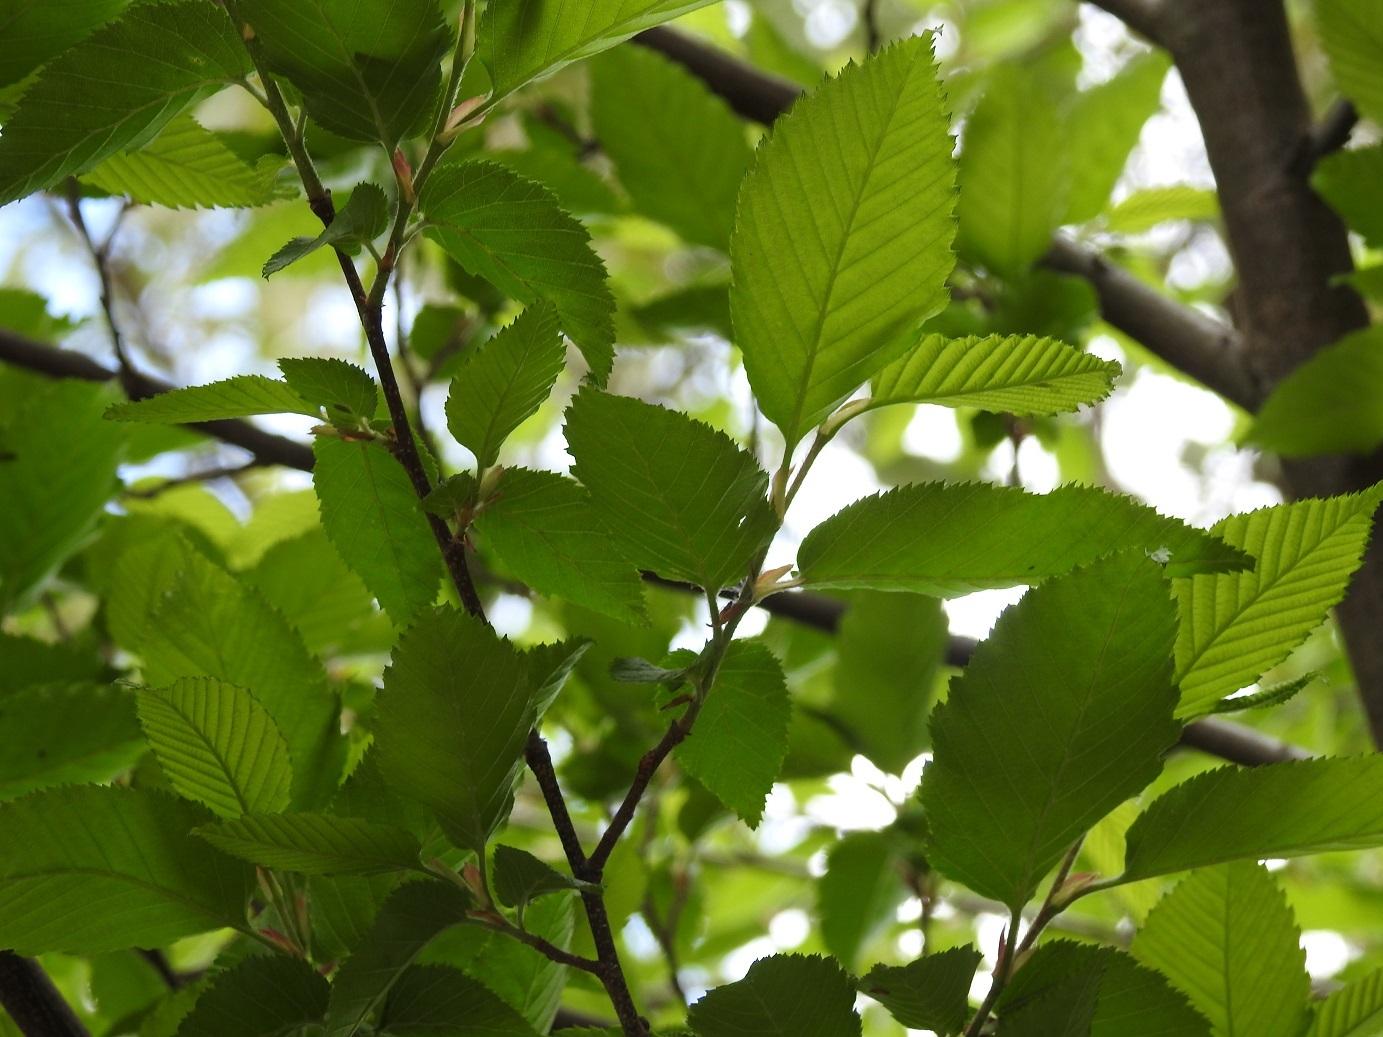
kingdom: Plantae
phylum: Tracheophyta
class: Magnoliopsida
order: Fagales
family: Betulaceae
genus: Carpinus
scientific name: Carpinus tropicalis
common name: Hornbeam
